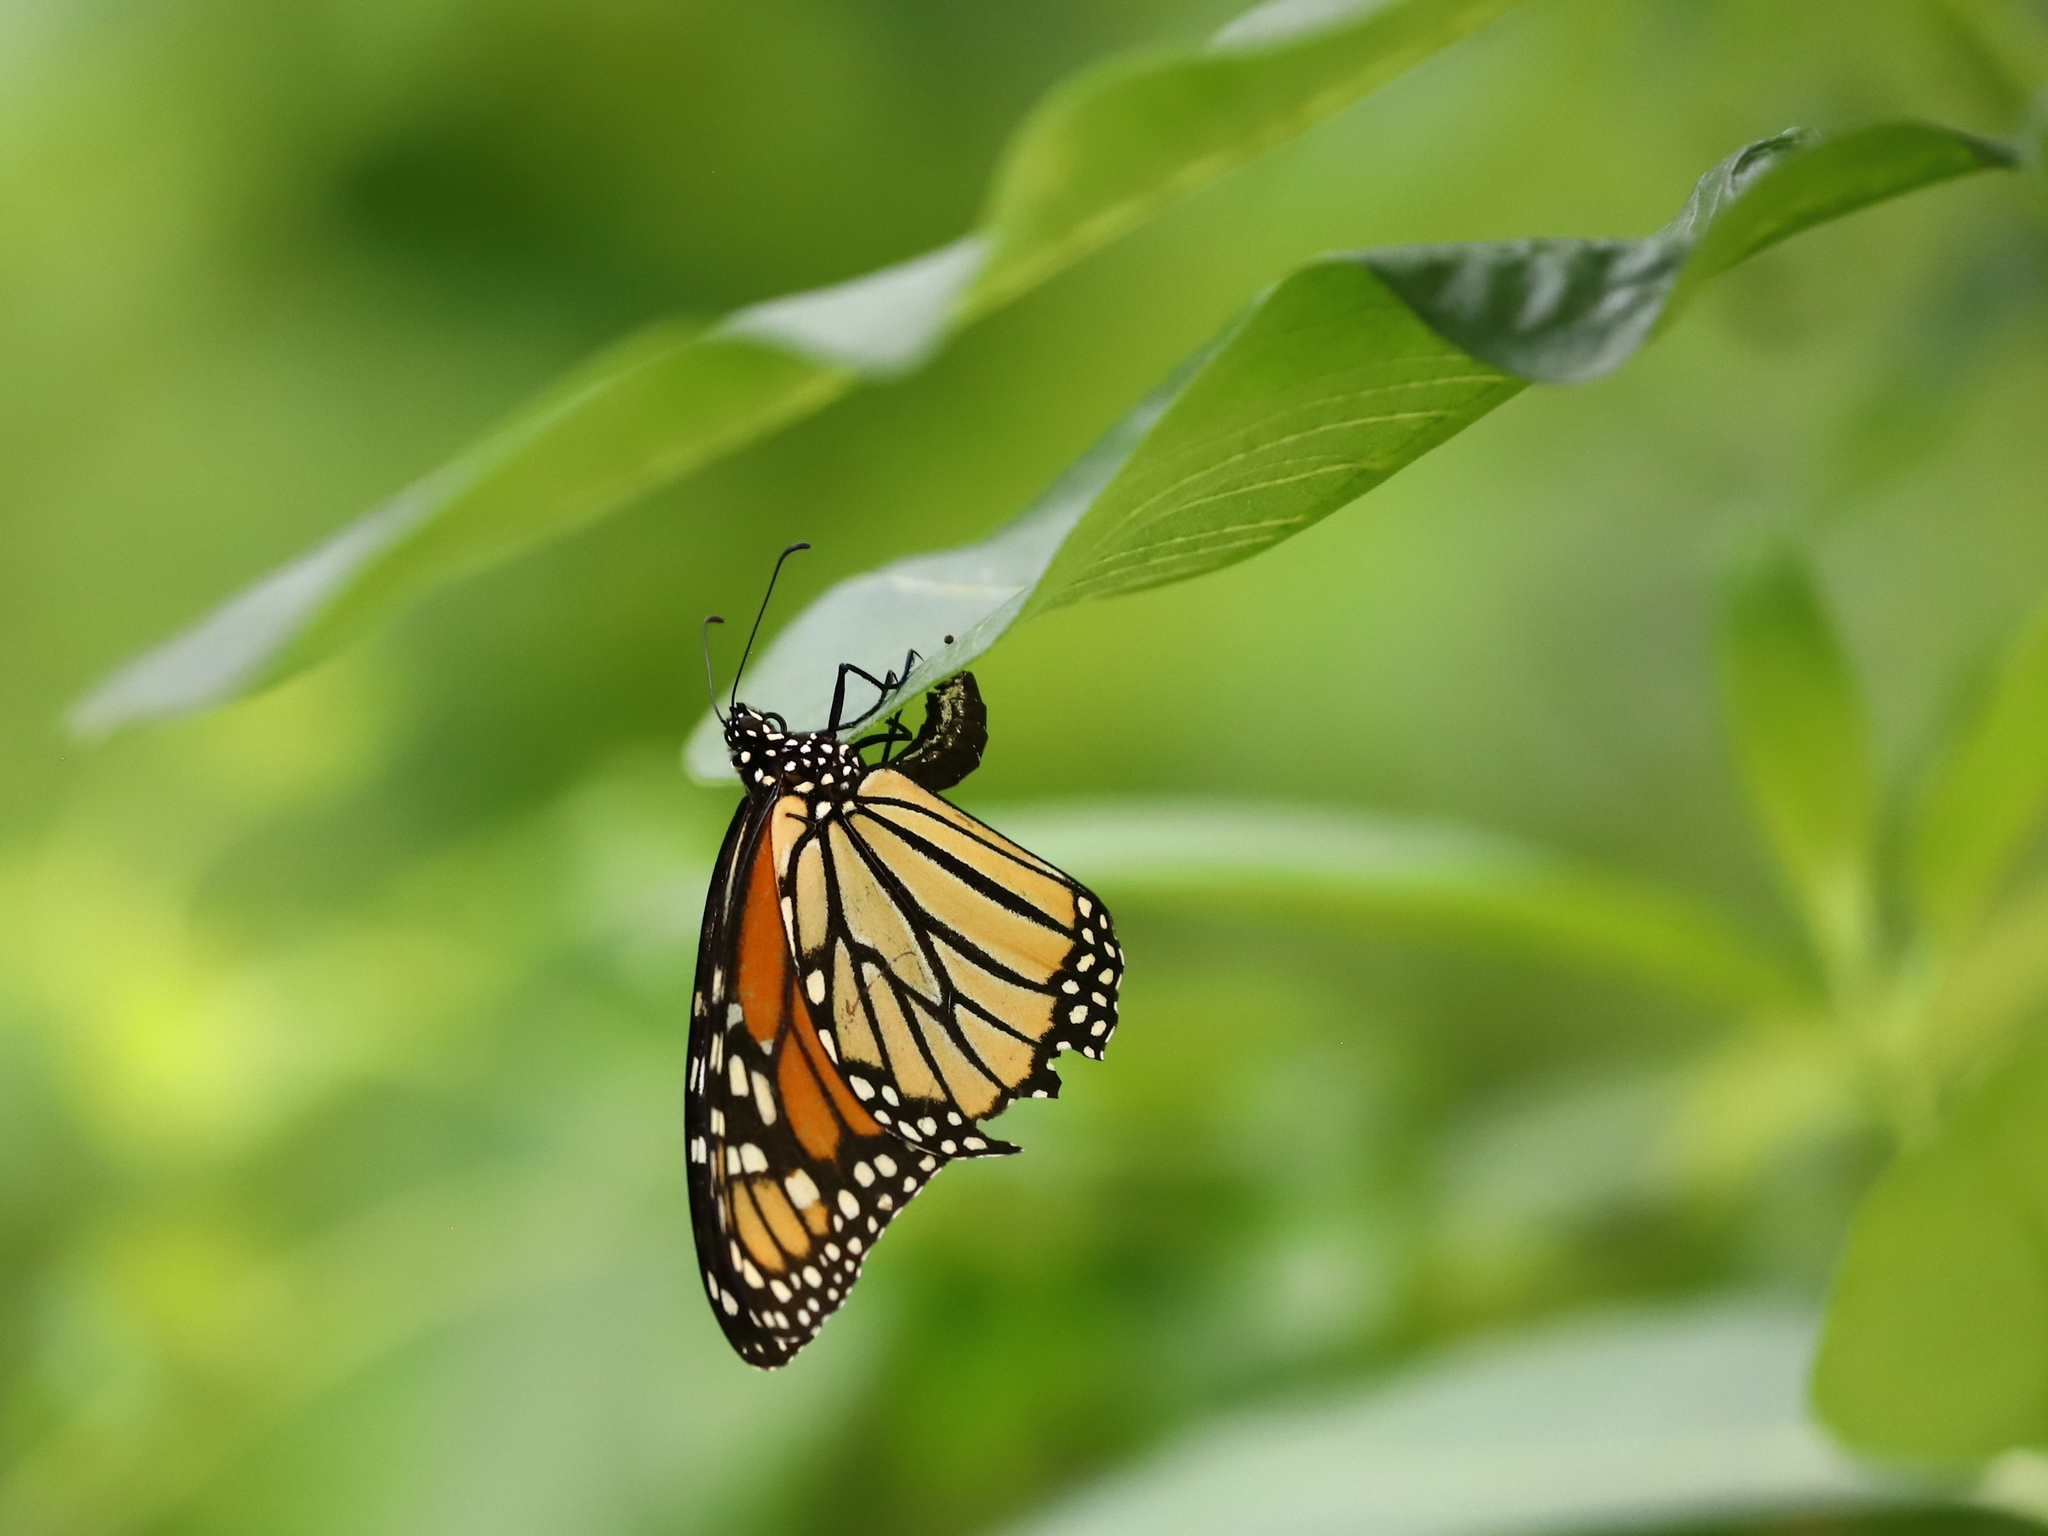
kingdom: Animalia
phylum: Arthropoda
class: Insecta
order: Lepidoptera
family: Nymphalidae
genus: Danaus
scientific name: Danaus plexippus
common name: Monarch
